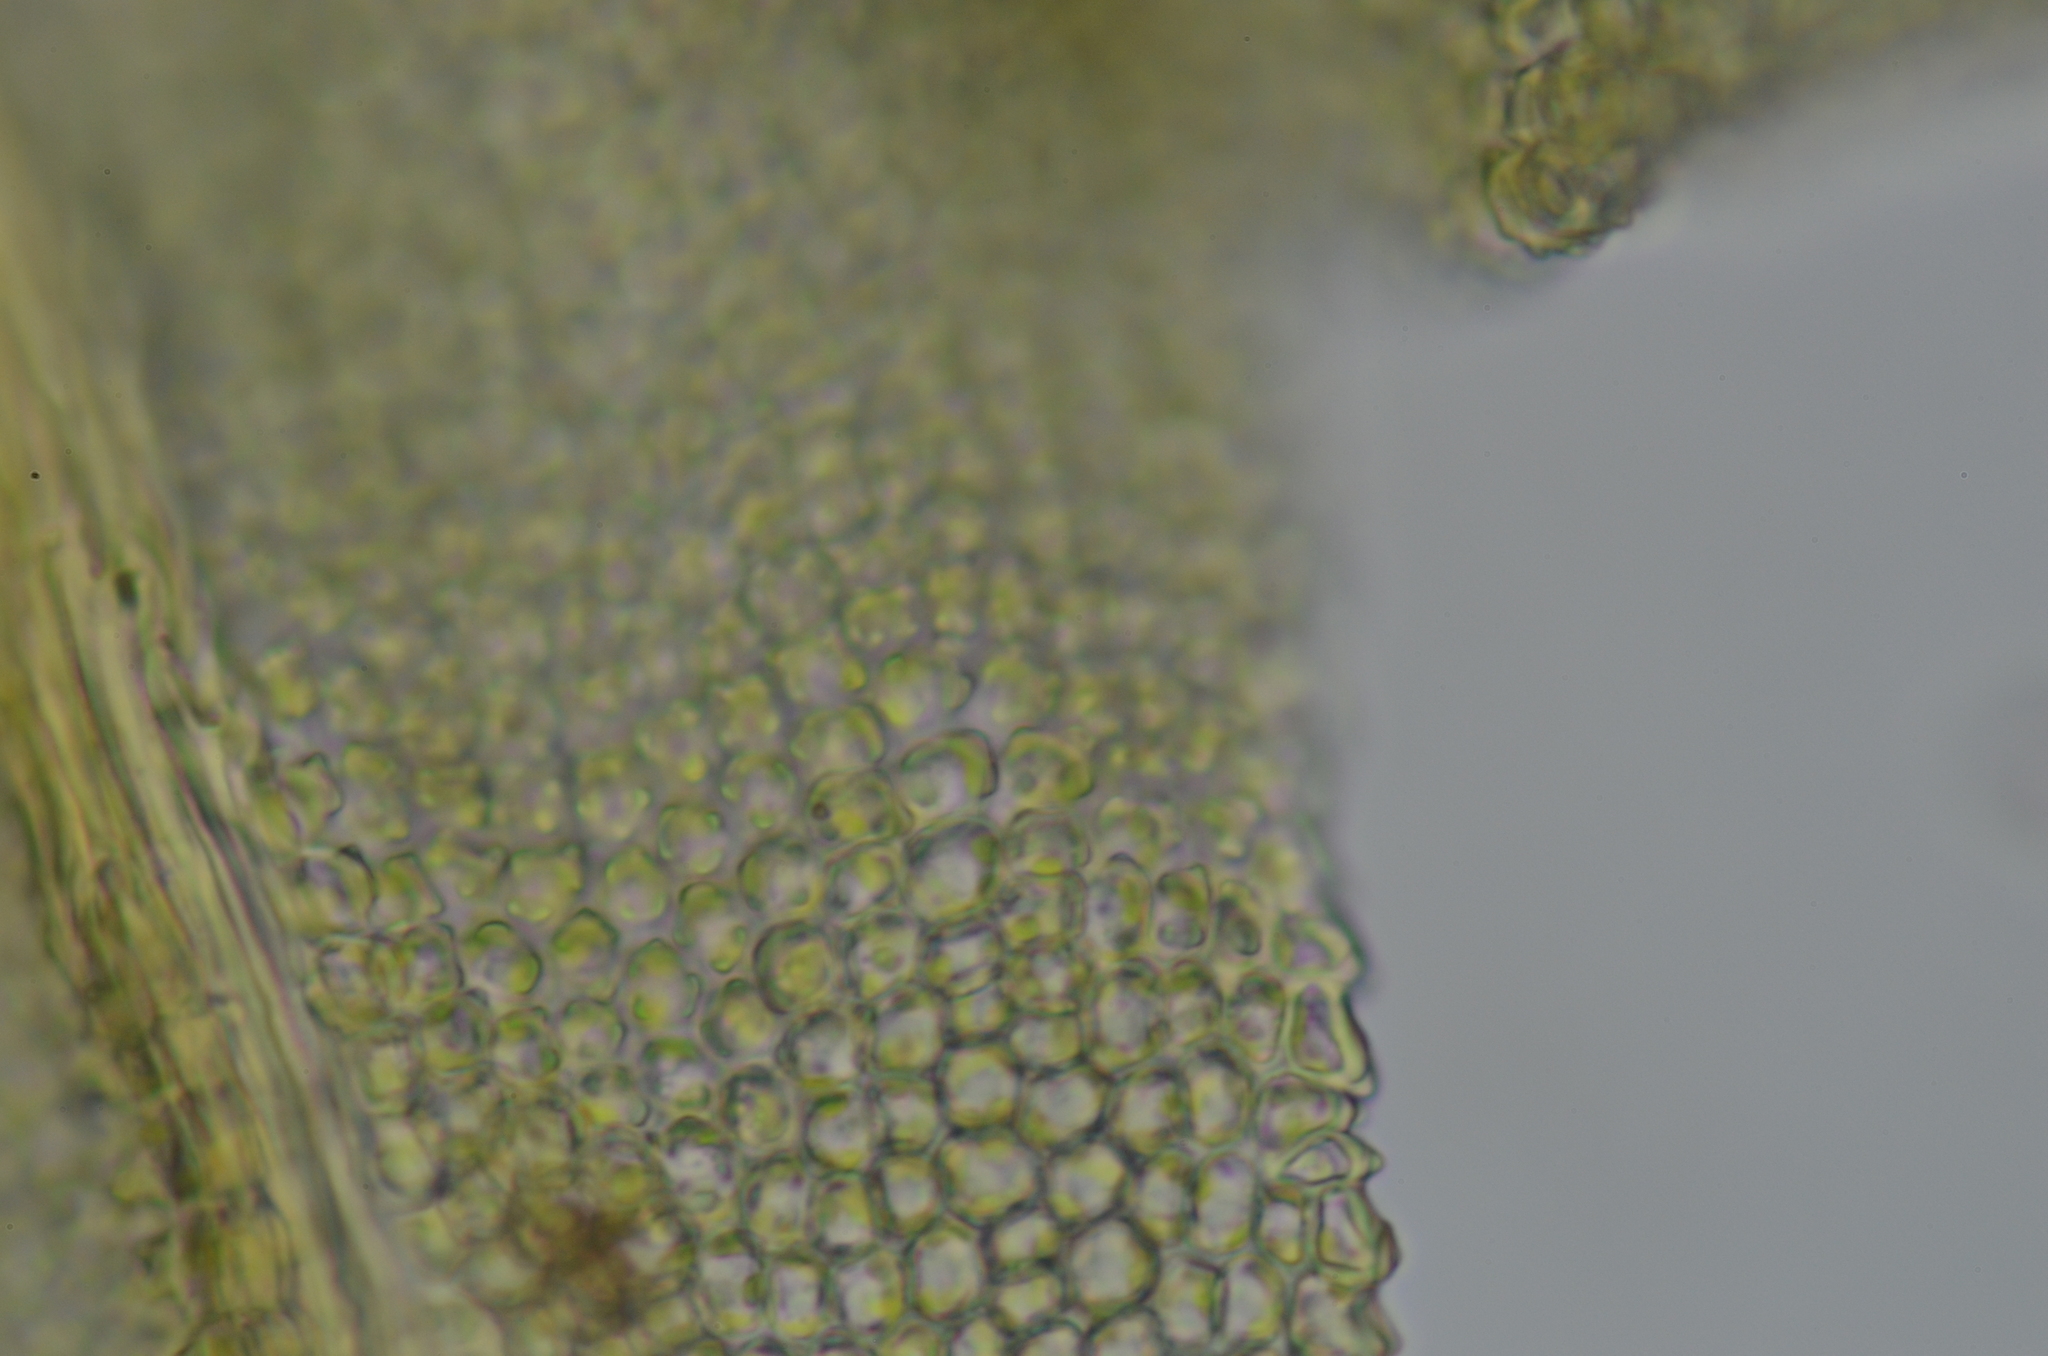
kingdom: Plantae
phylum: Bryophyta
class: Bryopsida
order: Hypnales
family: Brachytheciaceae
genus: Claopodium
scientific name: Claopodium bolanderi
